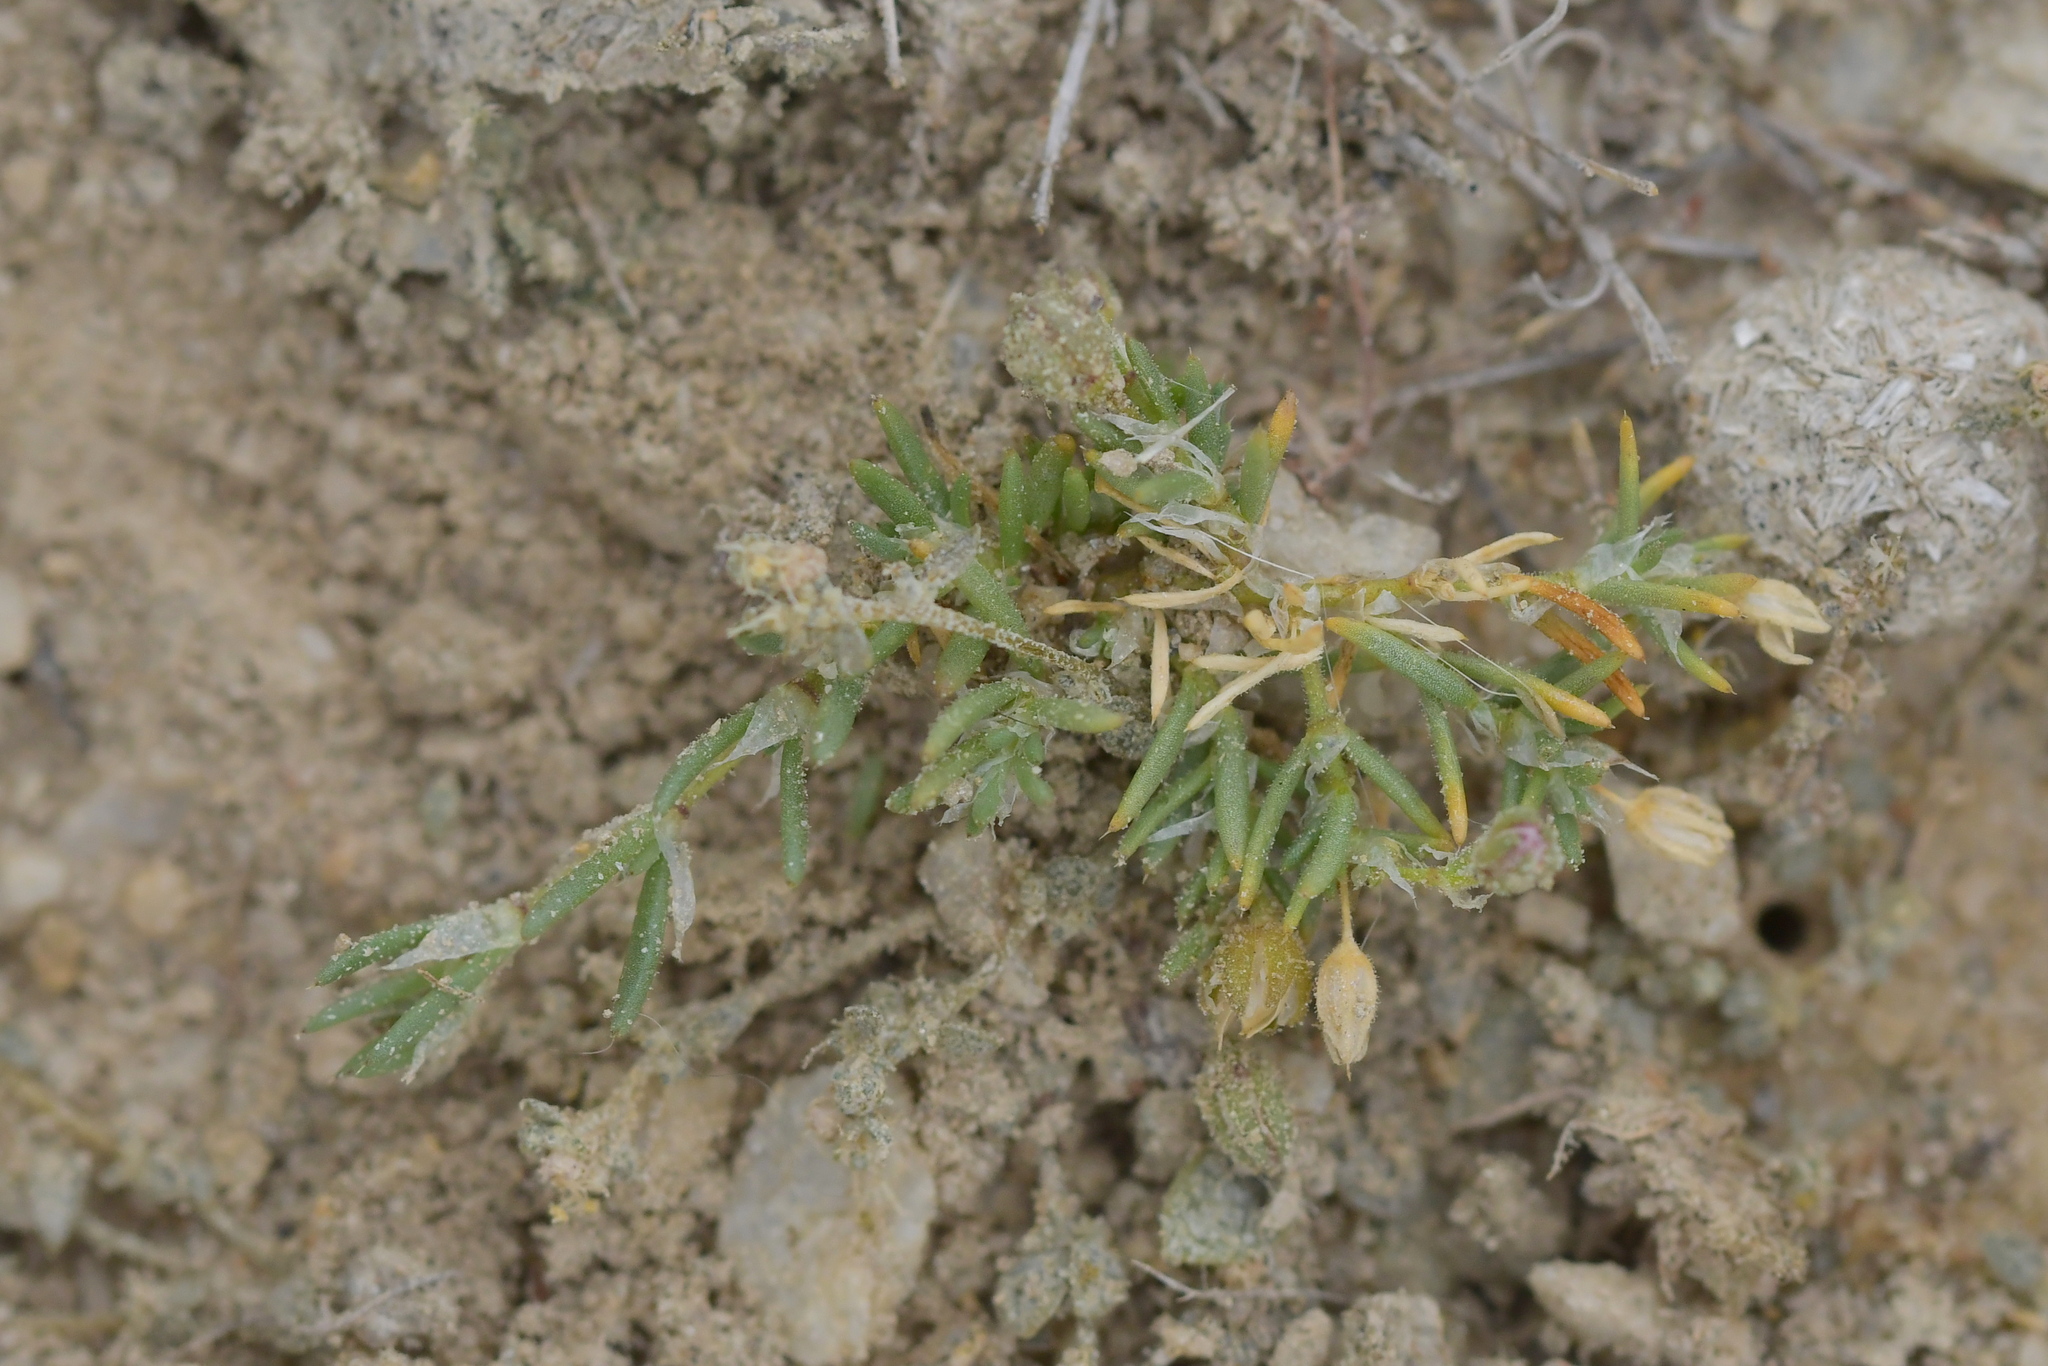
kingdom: Plantae
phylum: Tracheophyta
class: Magnoliopsida
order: Caryophyllales
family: Caryophyllaceae
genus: Spergularia
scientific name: Spergularia rubra
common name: Red sand-spurrey
